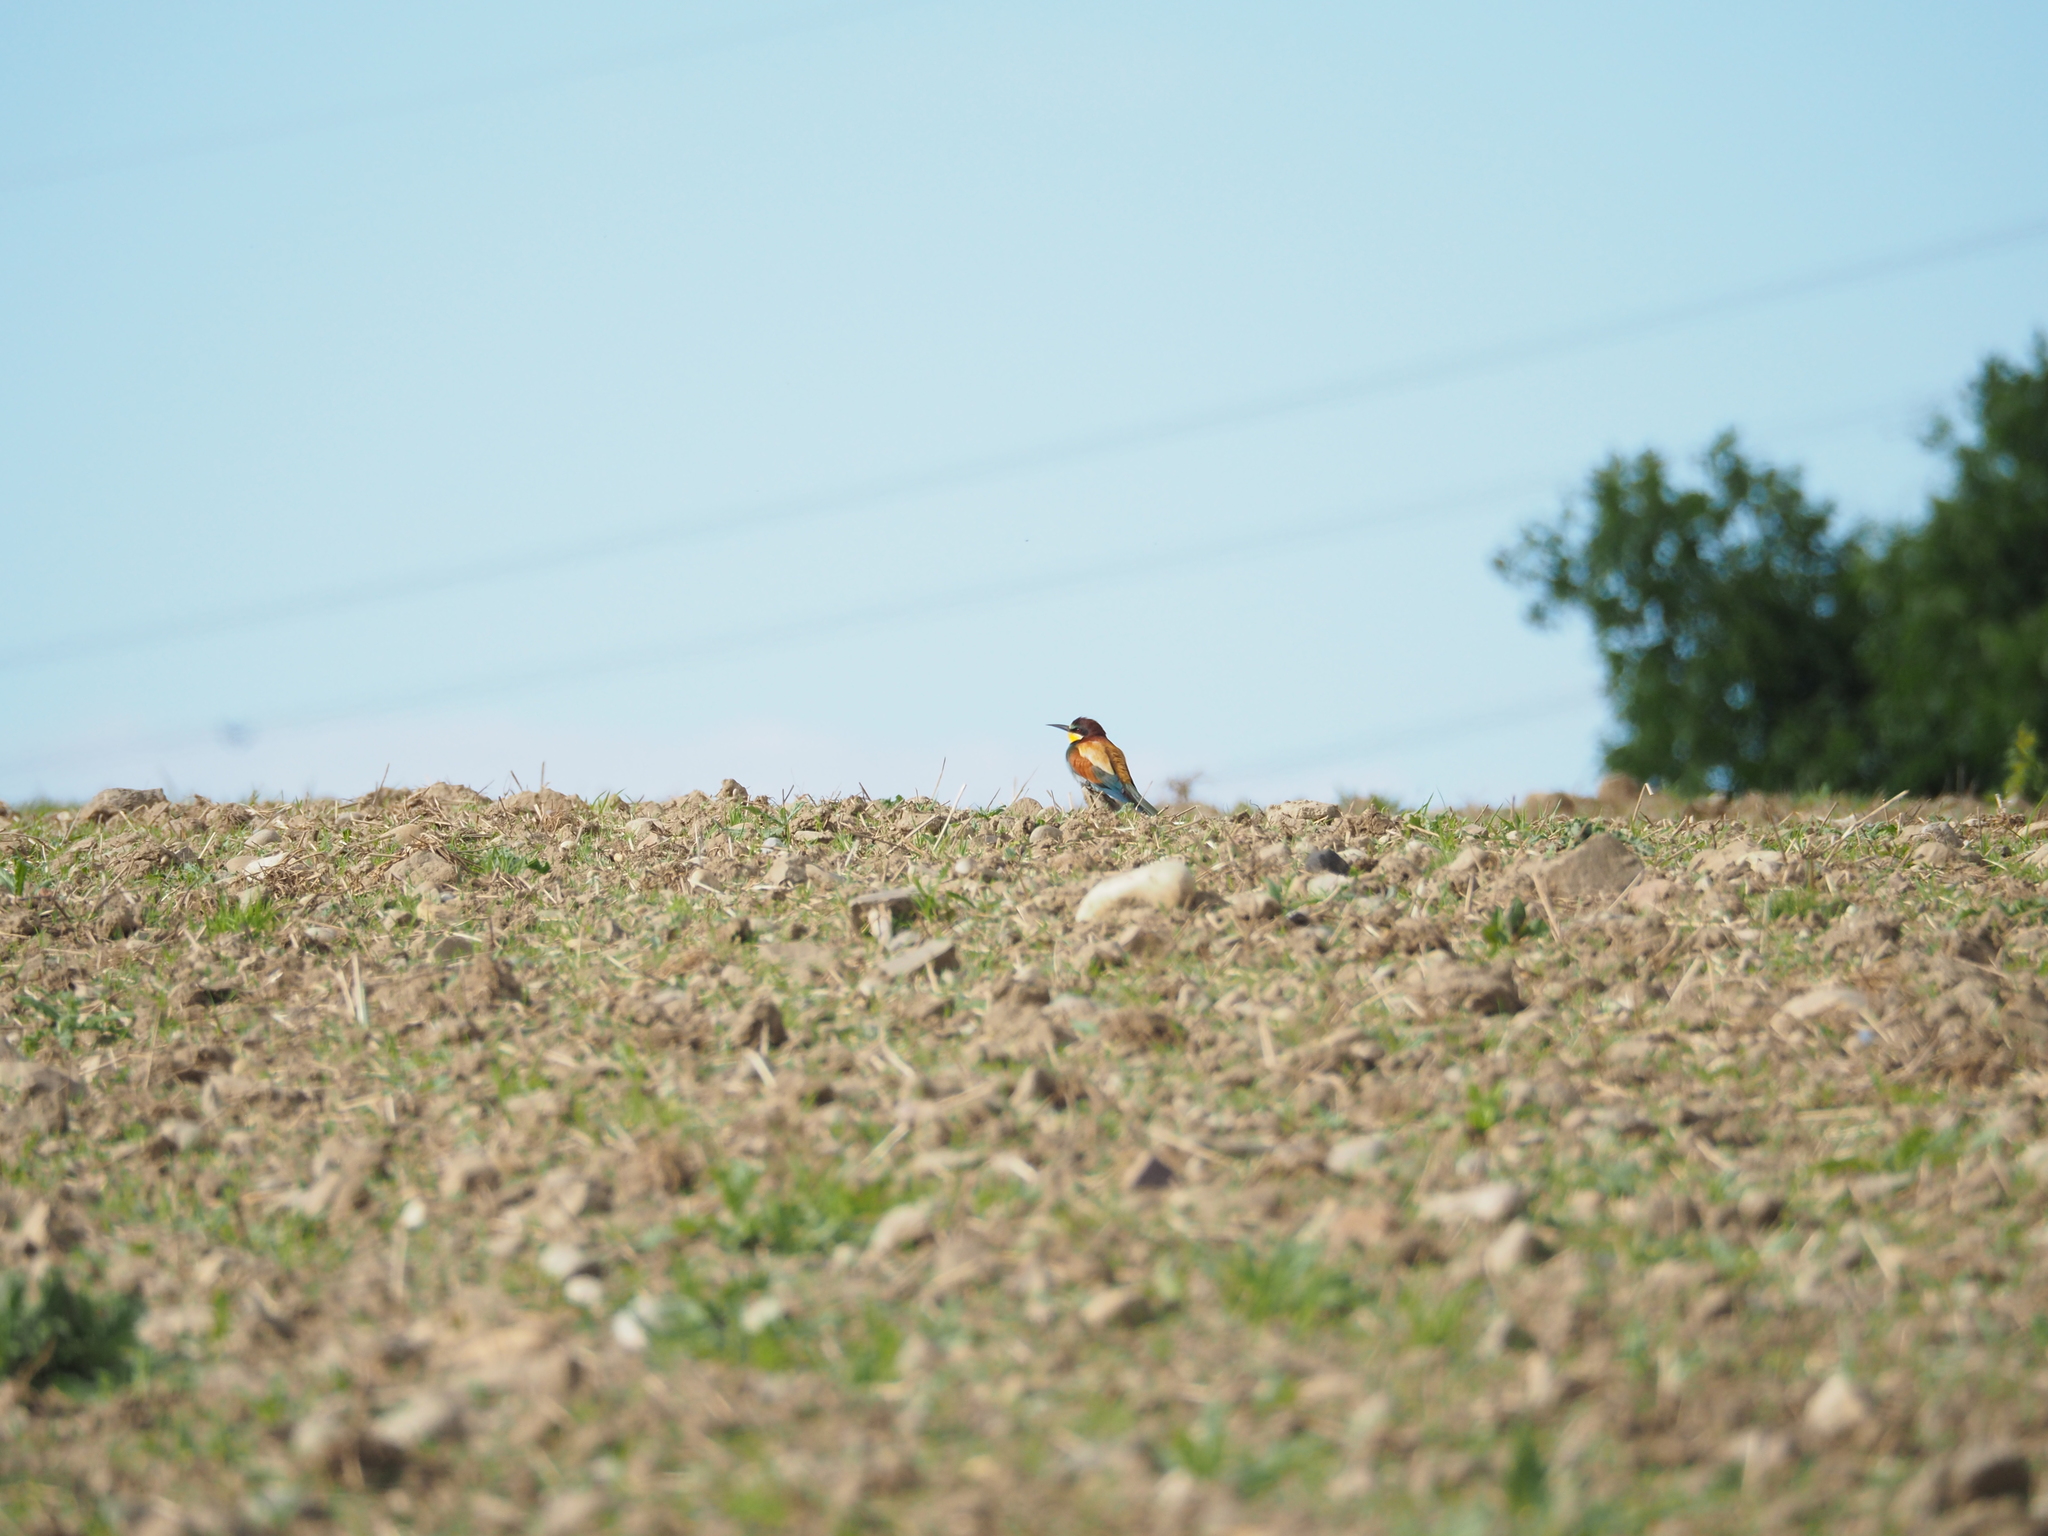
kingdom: Animalia
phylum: Chordata
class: Aves
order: Coraciiformes
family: Meropidae
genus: Merops
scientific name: Merops apiaster
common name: European bee-eater
